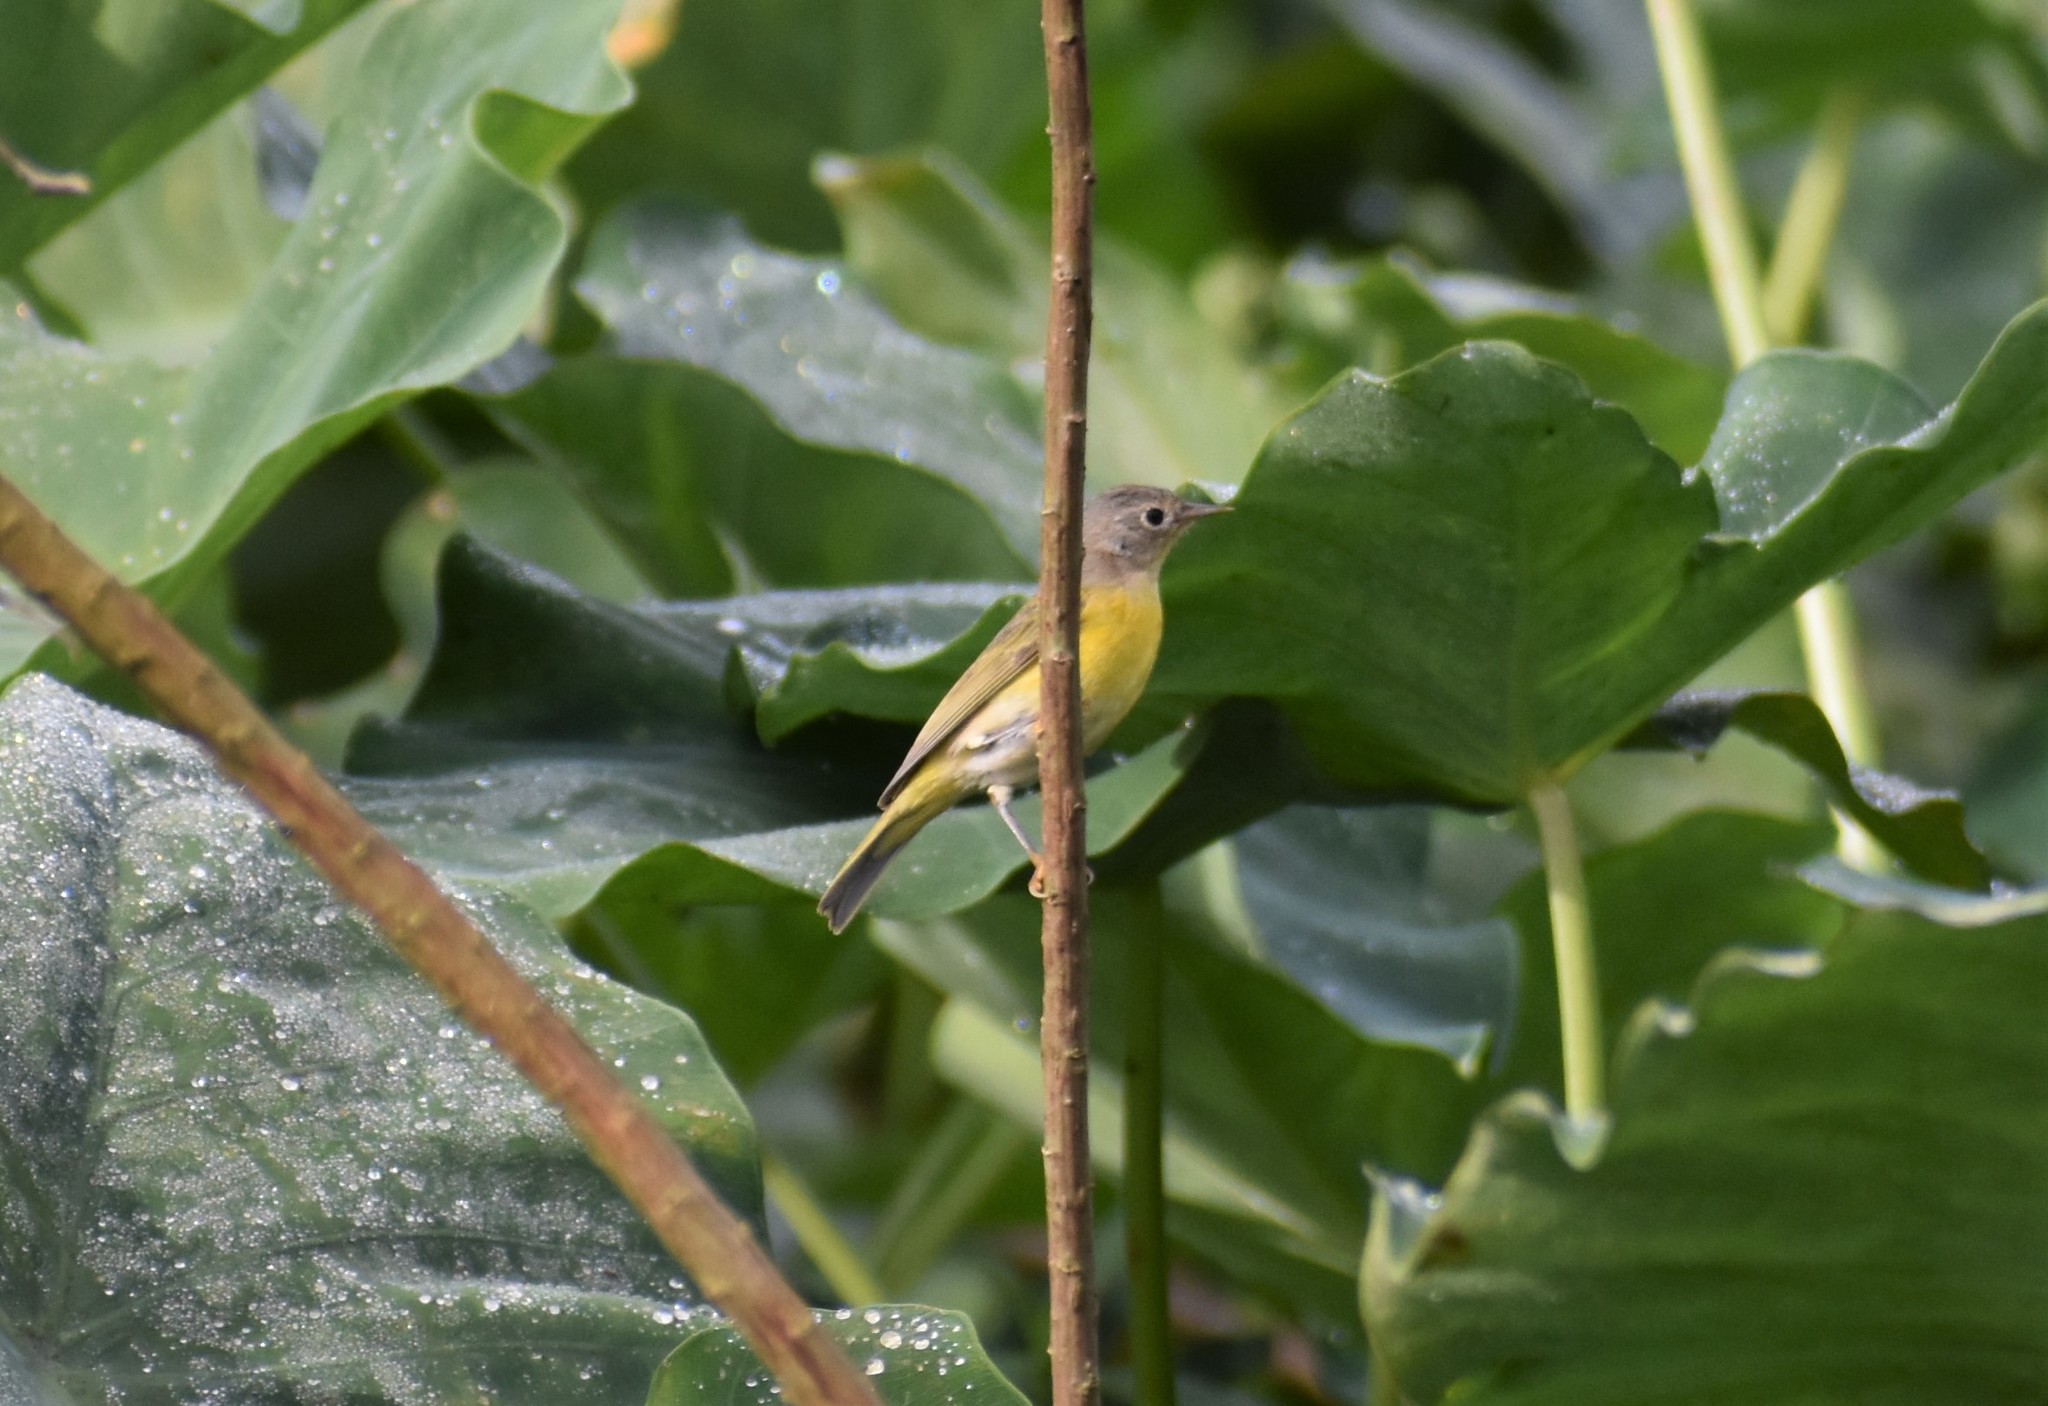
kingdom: Animalia
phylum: Chordata
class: Aves
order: Passeriformes
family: Parulidae
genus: Leiothlypis
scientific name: Leiothlypis ruficapilla
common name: Nashville warbler
